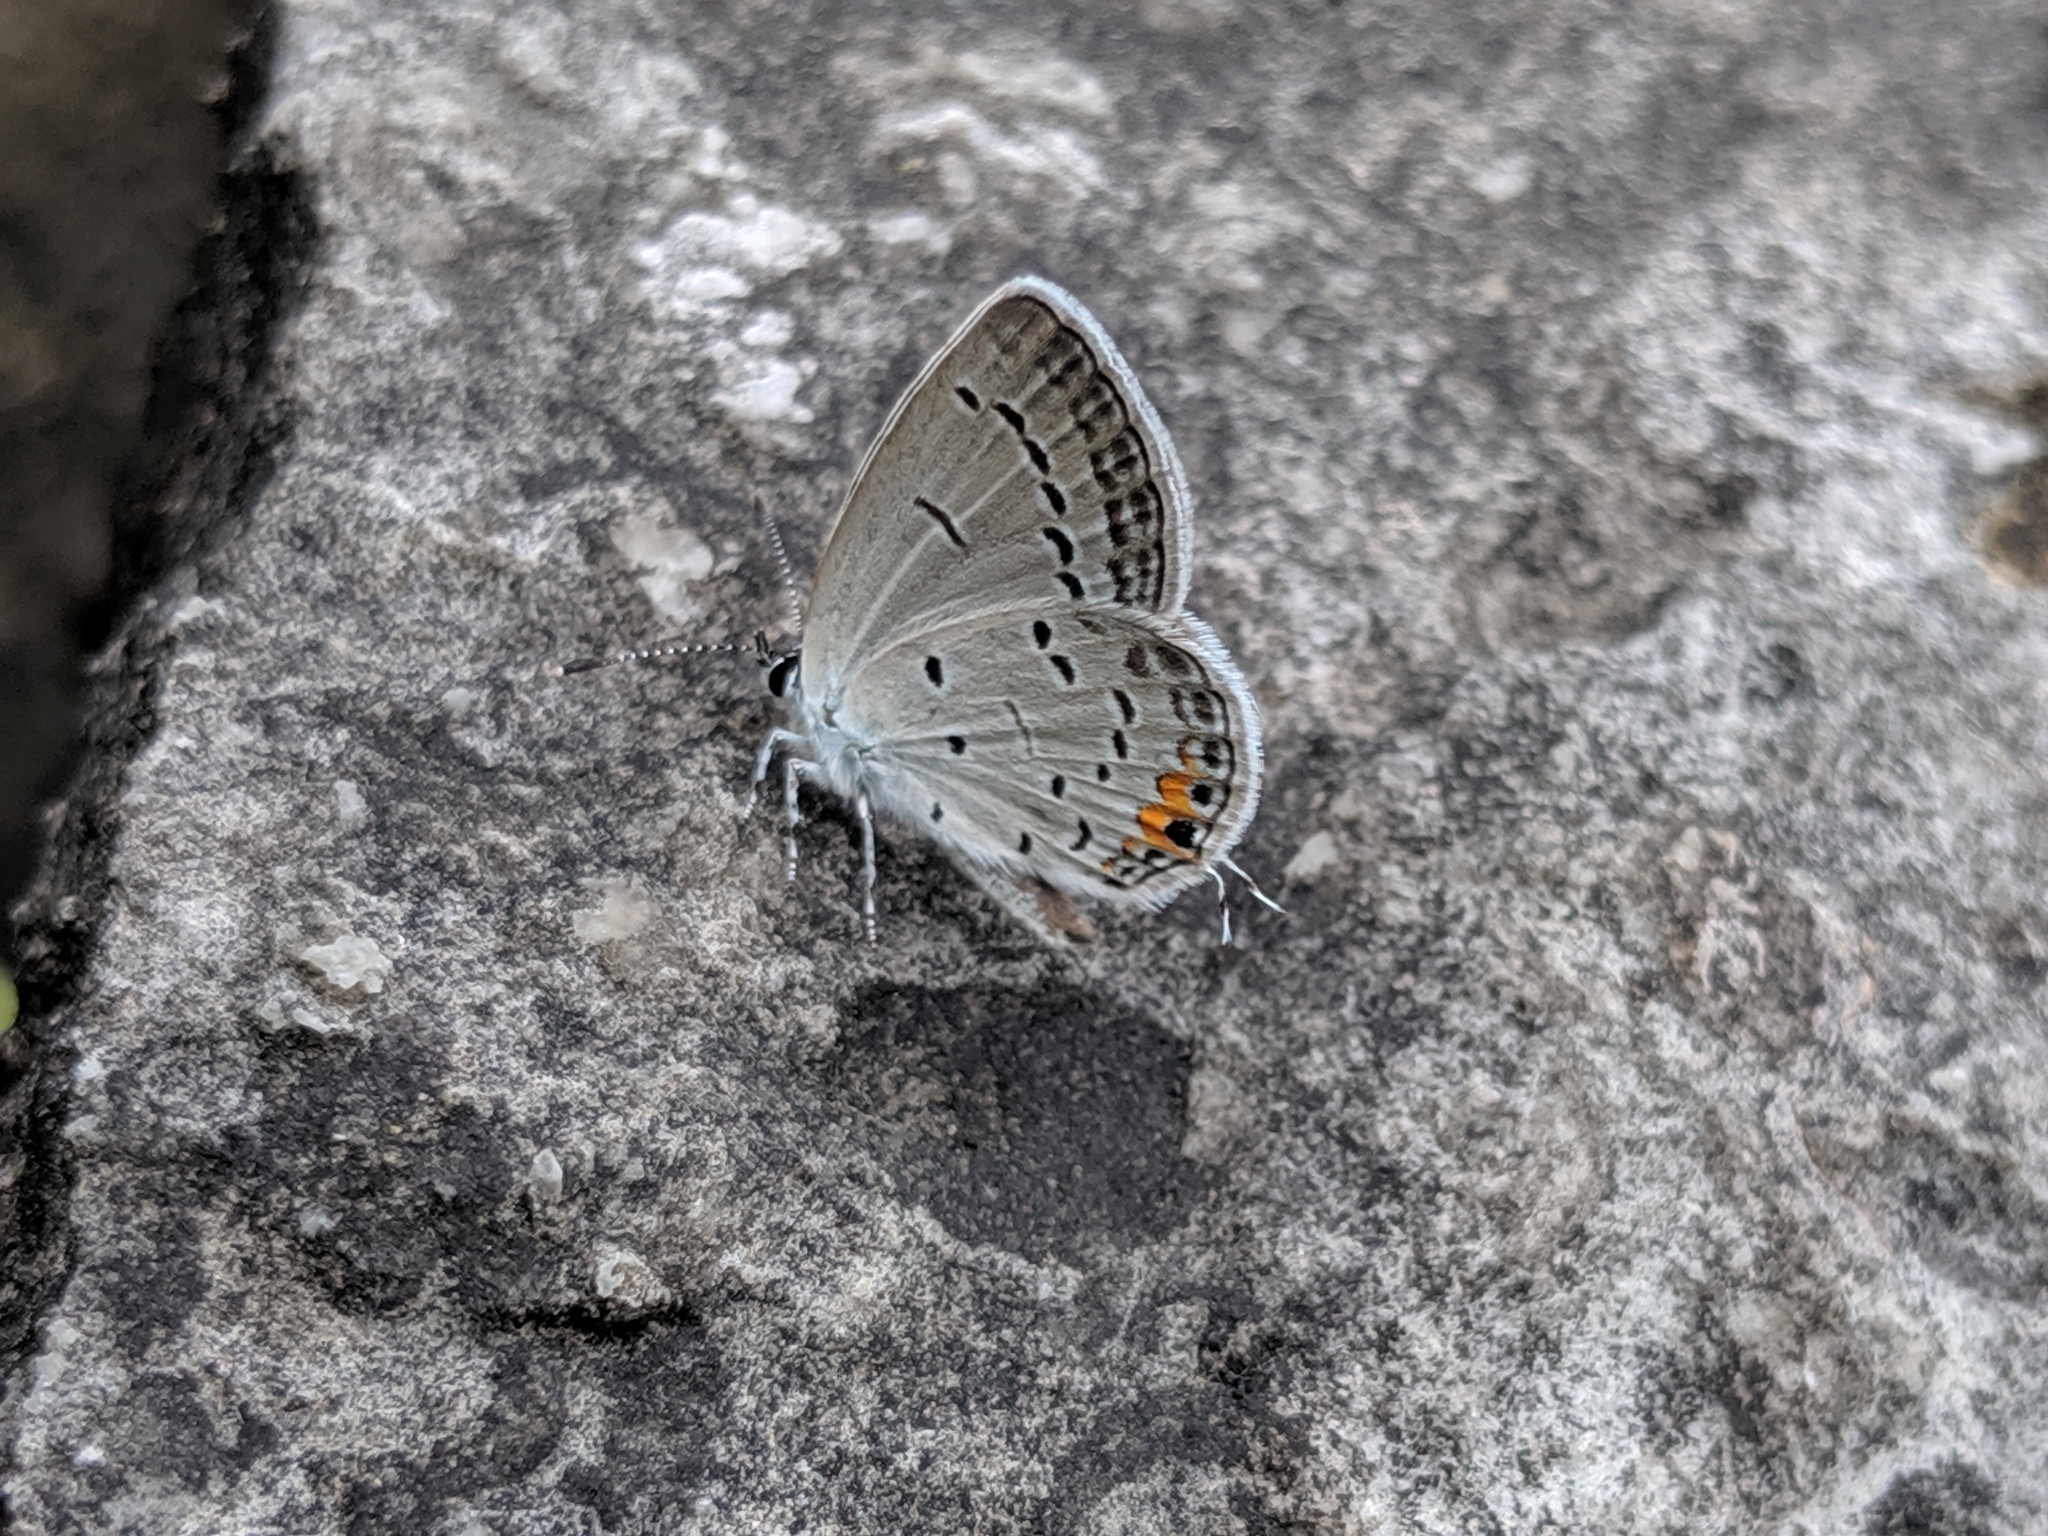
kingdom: Animalia
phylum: Arthropoda
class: Insecta
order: Lepidoptera
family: Lycaenidae
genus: Elkalyce
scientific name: Elkalyce comyntas
